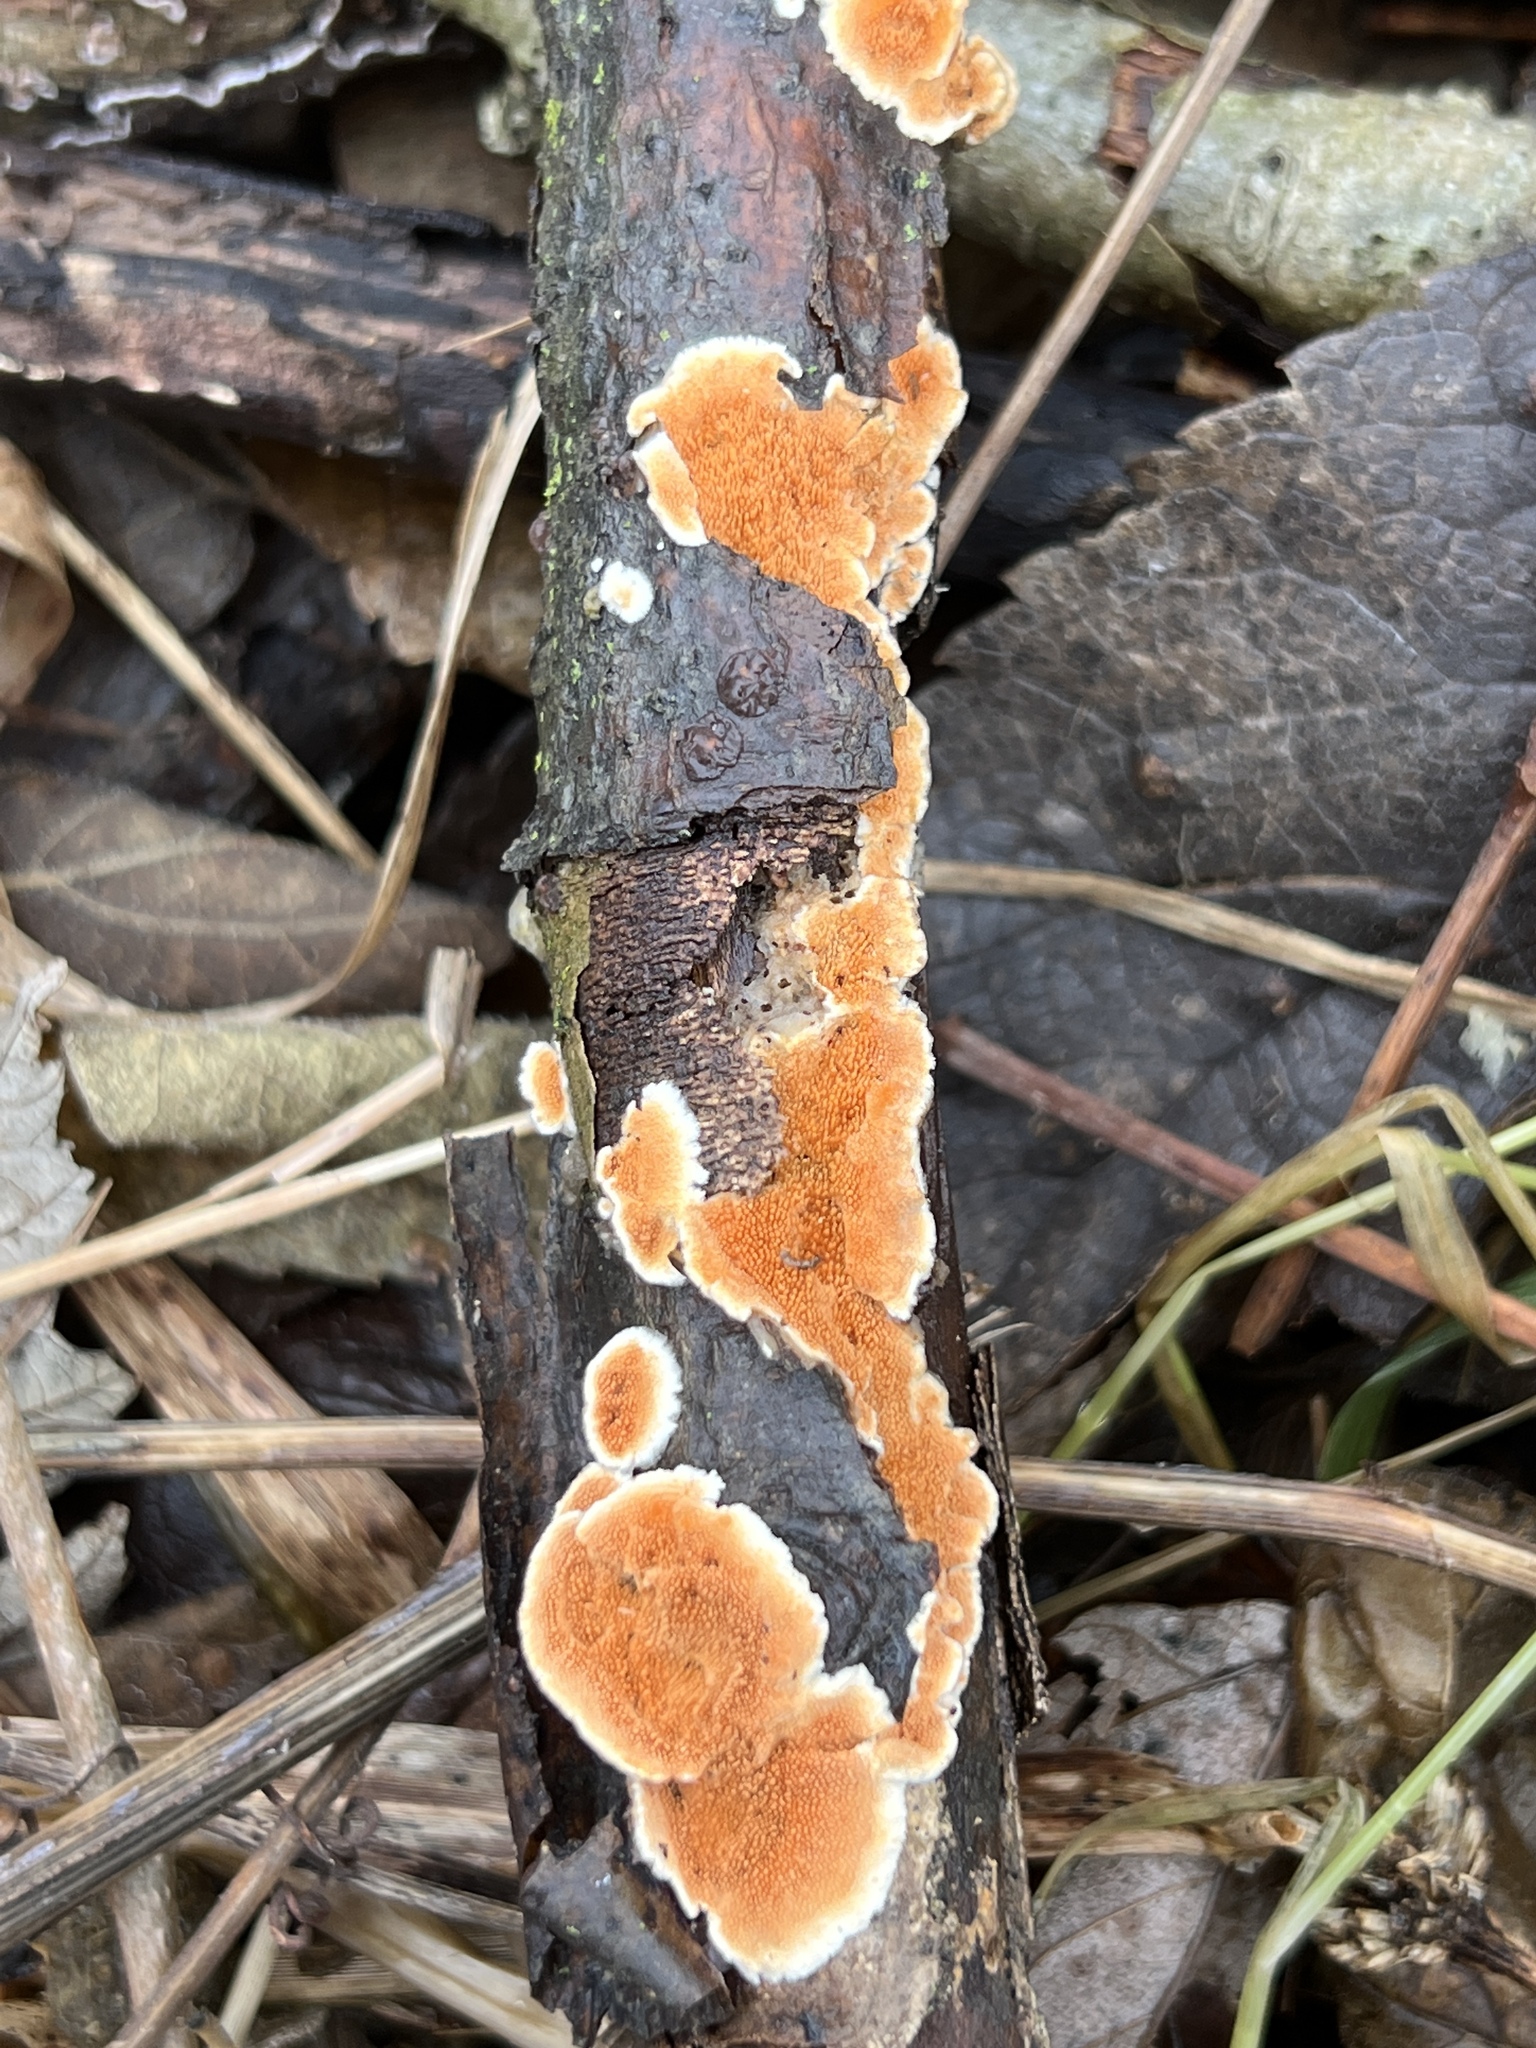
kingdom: Fungi
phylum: Basidiomycota
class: Agaricomycetes
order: Polyporales
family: Steccherinaceae
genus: Steccherinum
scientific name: Steccherinum ochraceum
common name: Ochre spreading tooth
